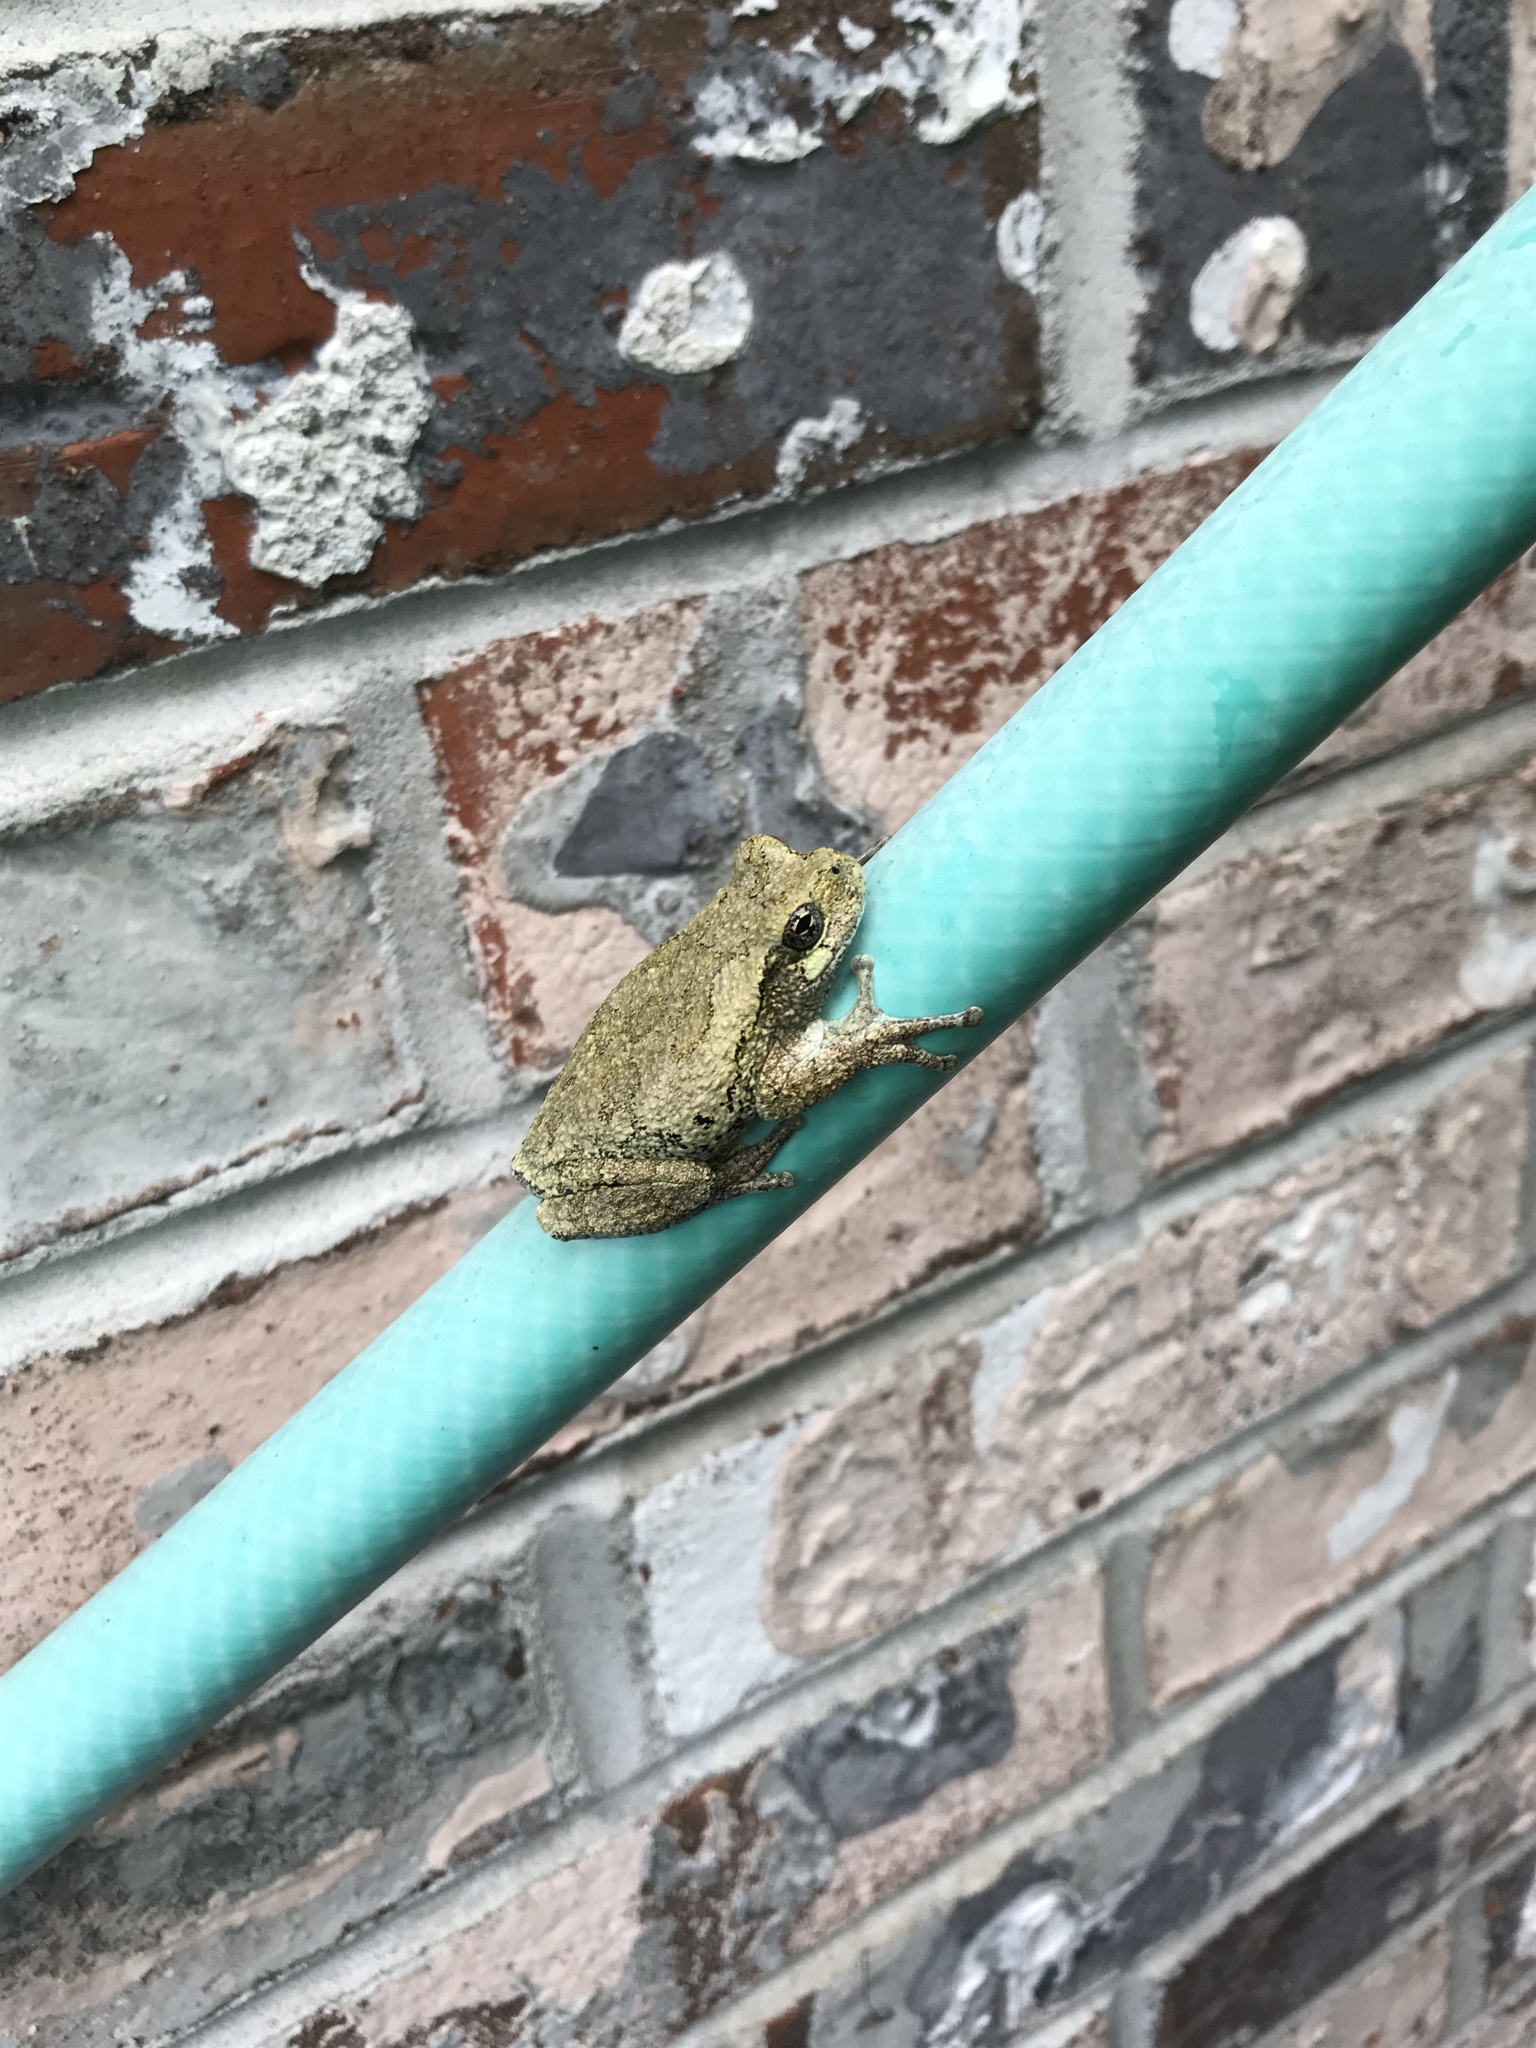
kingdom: Animalia
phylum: Chordata
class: Amphibia
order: Anura
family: Hylidae
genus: Dryophytes
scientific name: Dryophytes chrysoscelis
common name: Cope's gray treefrog
